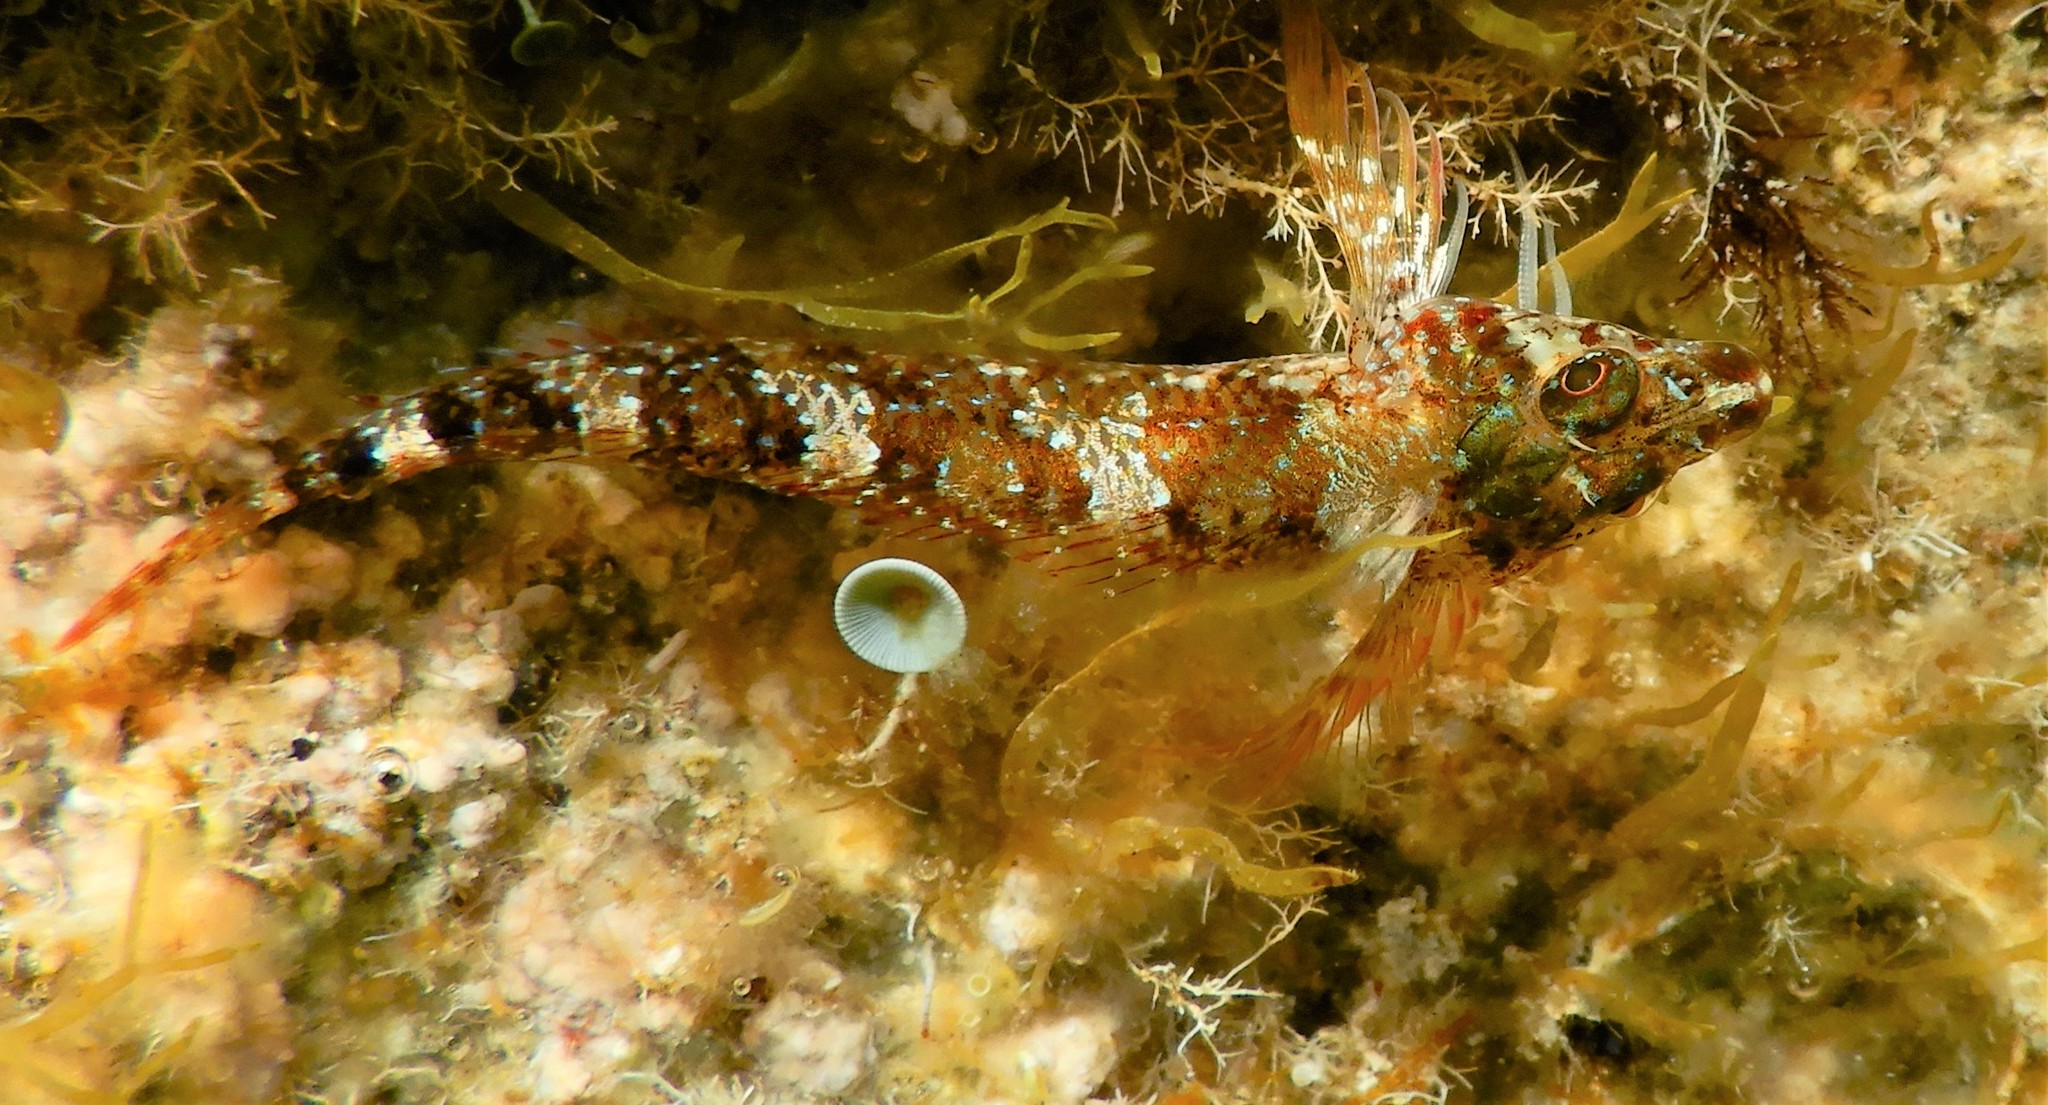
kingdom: Animalia
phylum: Chordata
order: Perciformes
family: Tripterygiidae
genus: Tripterygion
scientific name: Tripterygion tripteronotum
